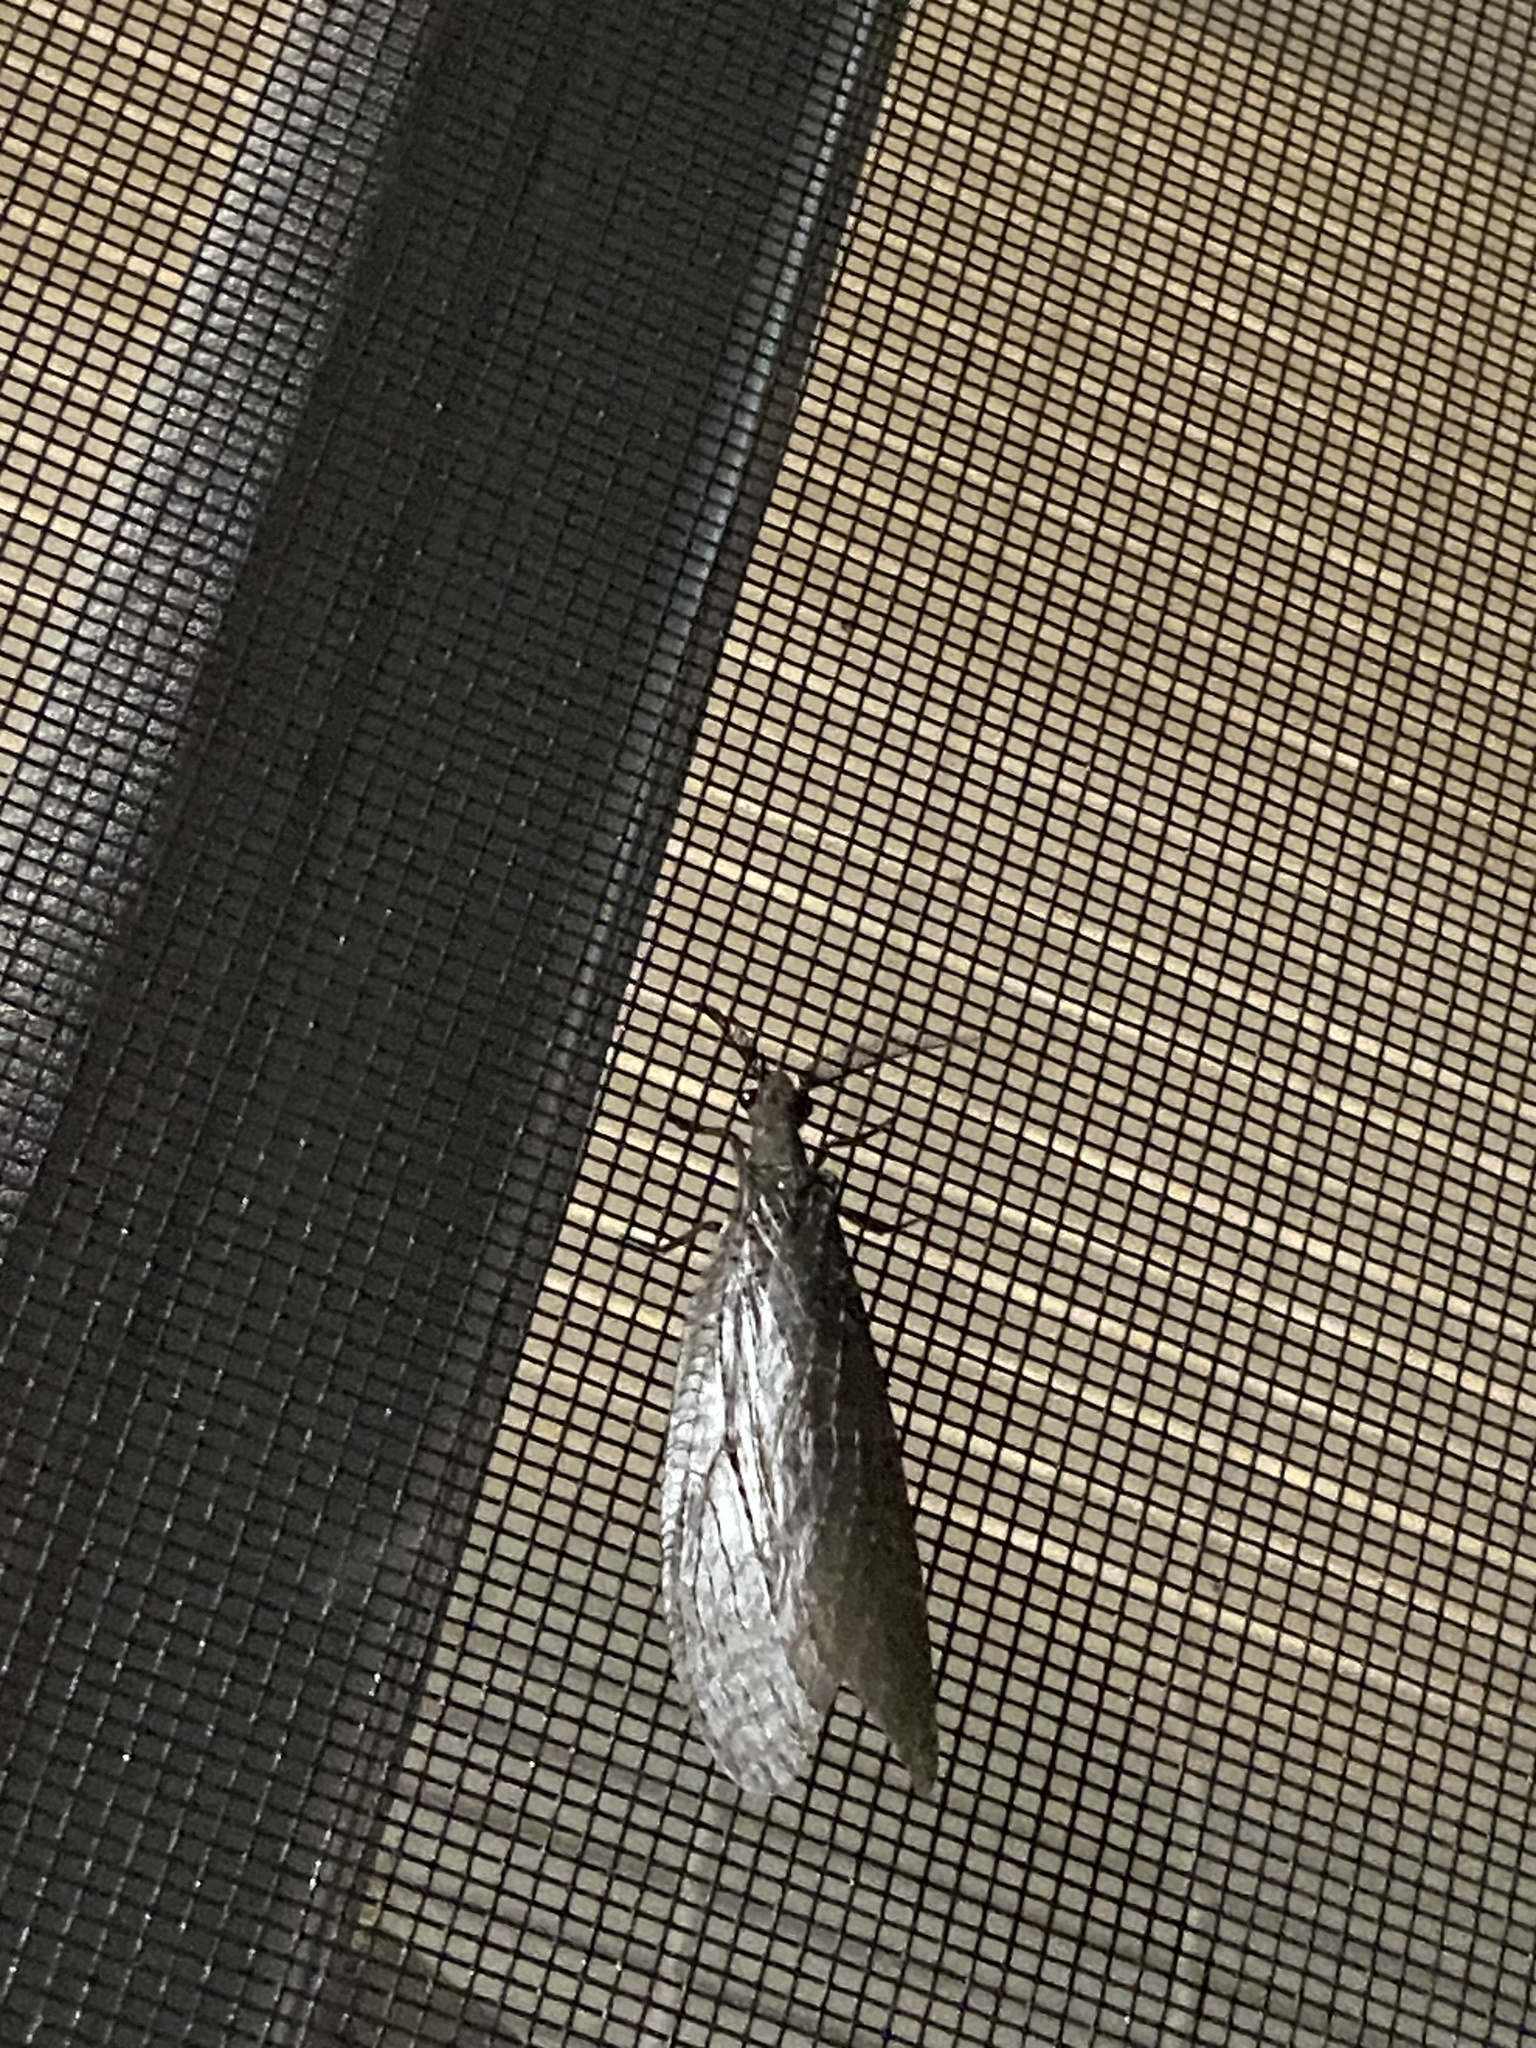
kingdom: Animalia
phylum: Arthropoda
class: Insecta
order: Megaloptera
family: Corydalidae
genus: Chauliodes
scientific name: Chauliodes pectinicornis
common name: Summer fishfly
